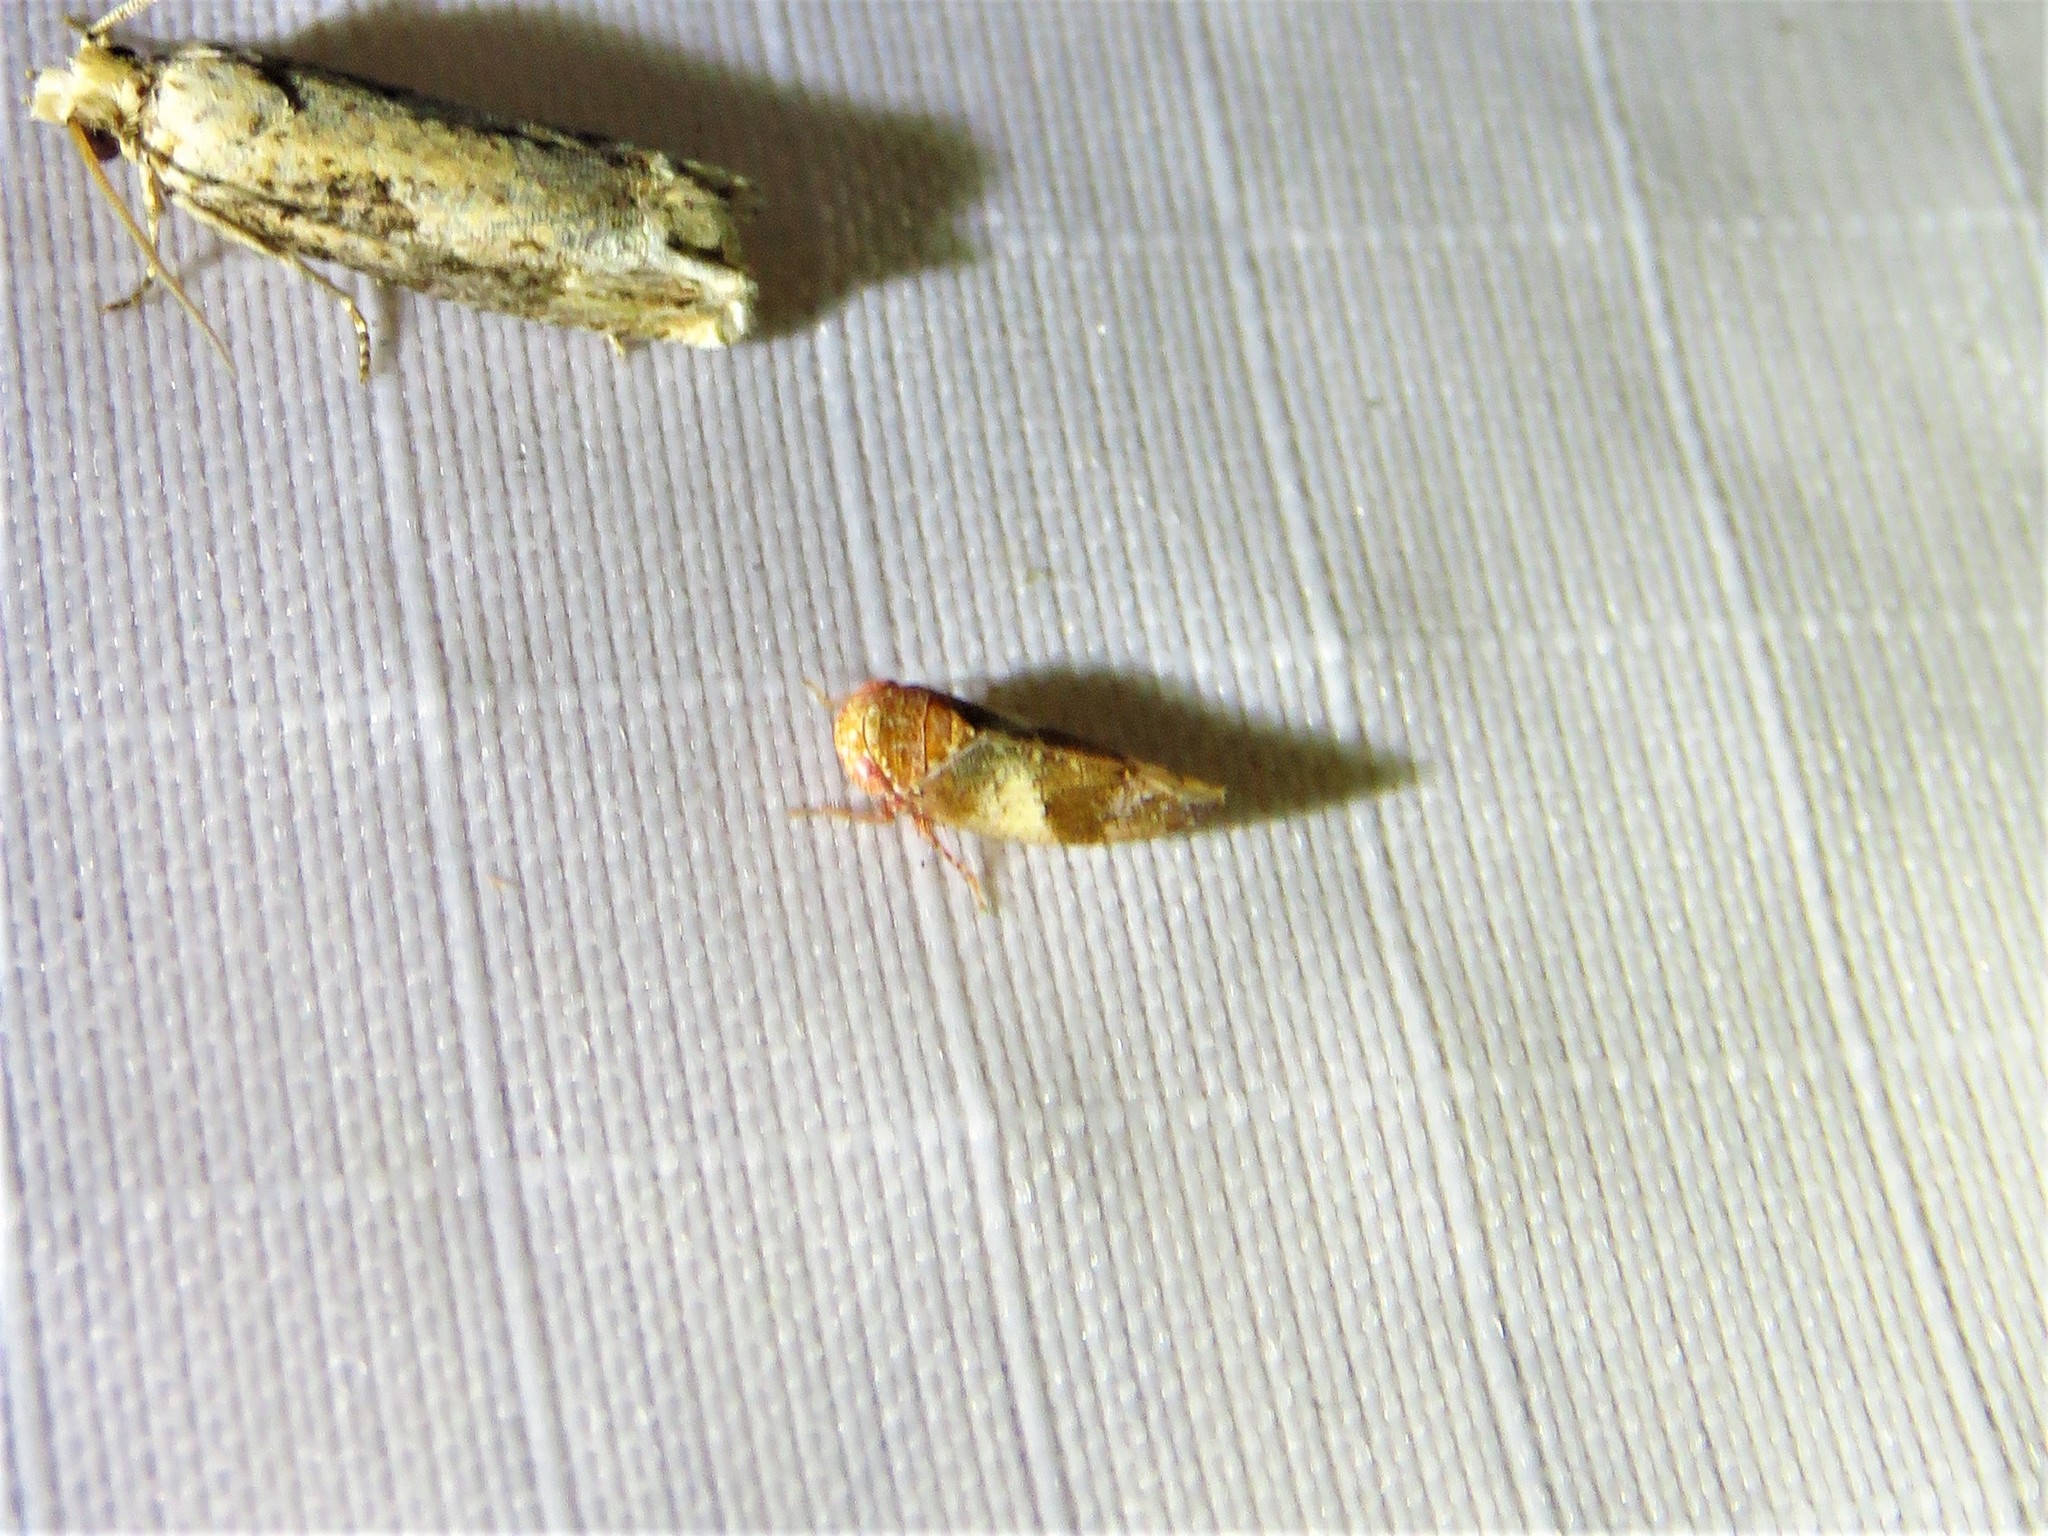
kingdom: Animalia
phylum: Arthropoda
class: Insecta
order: Hemiptera
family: Cicadellidae
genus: Norvellina
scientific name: Norvellina helenae
